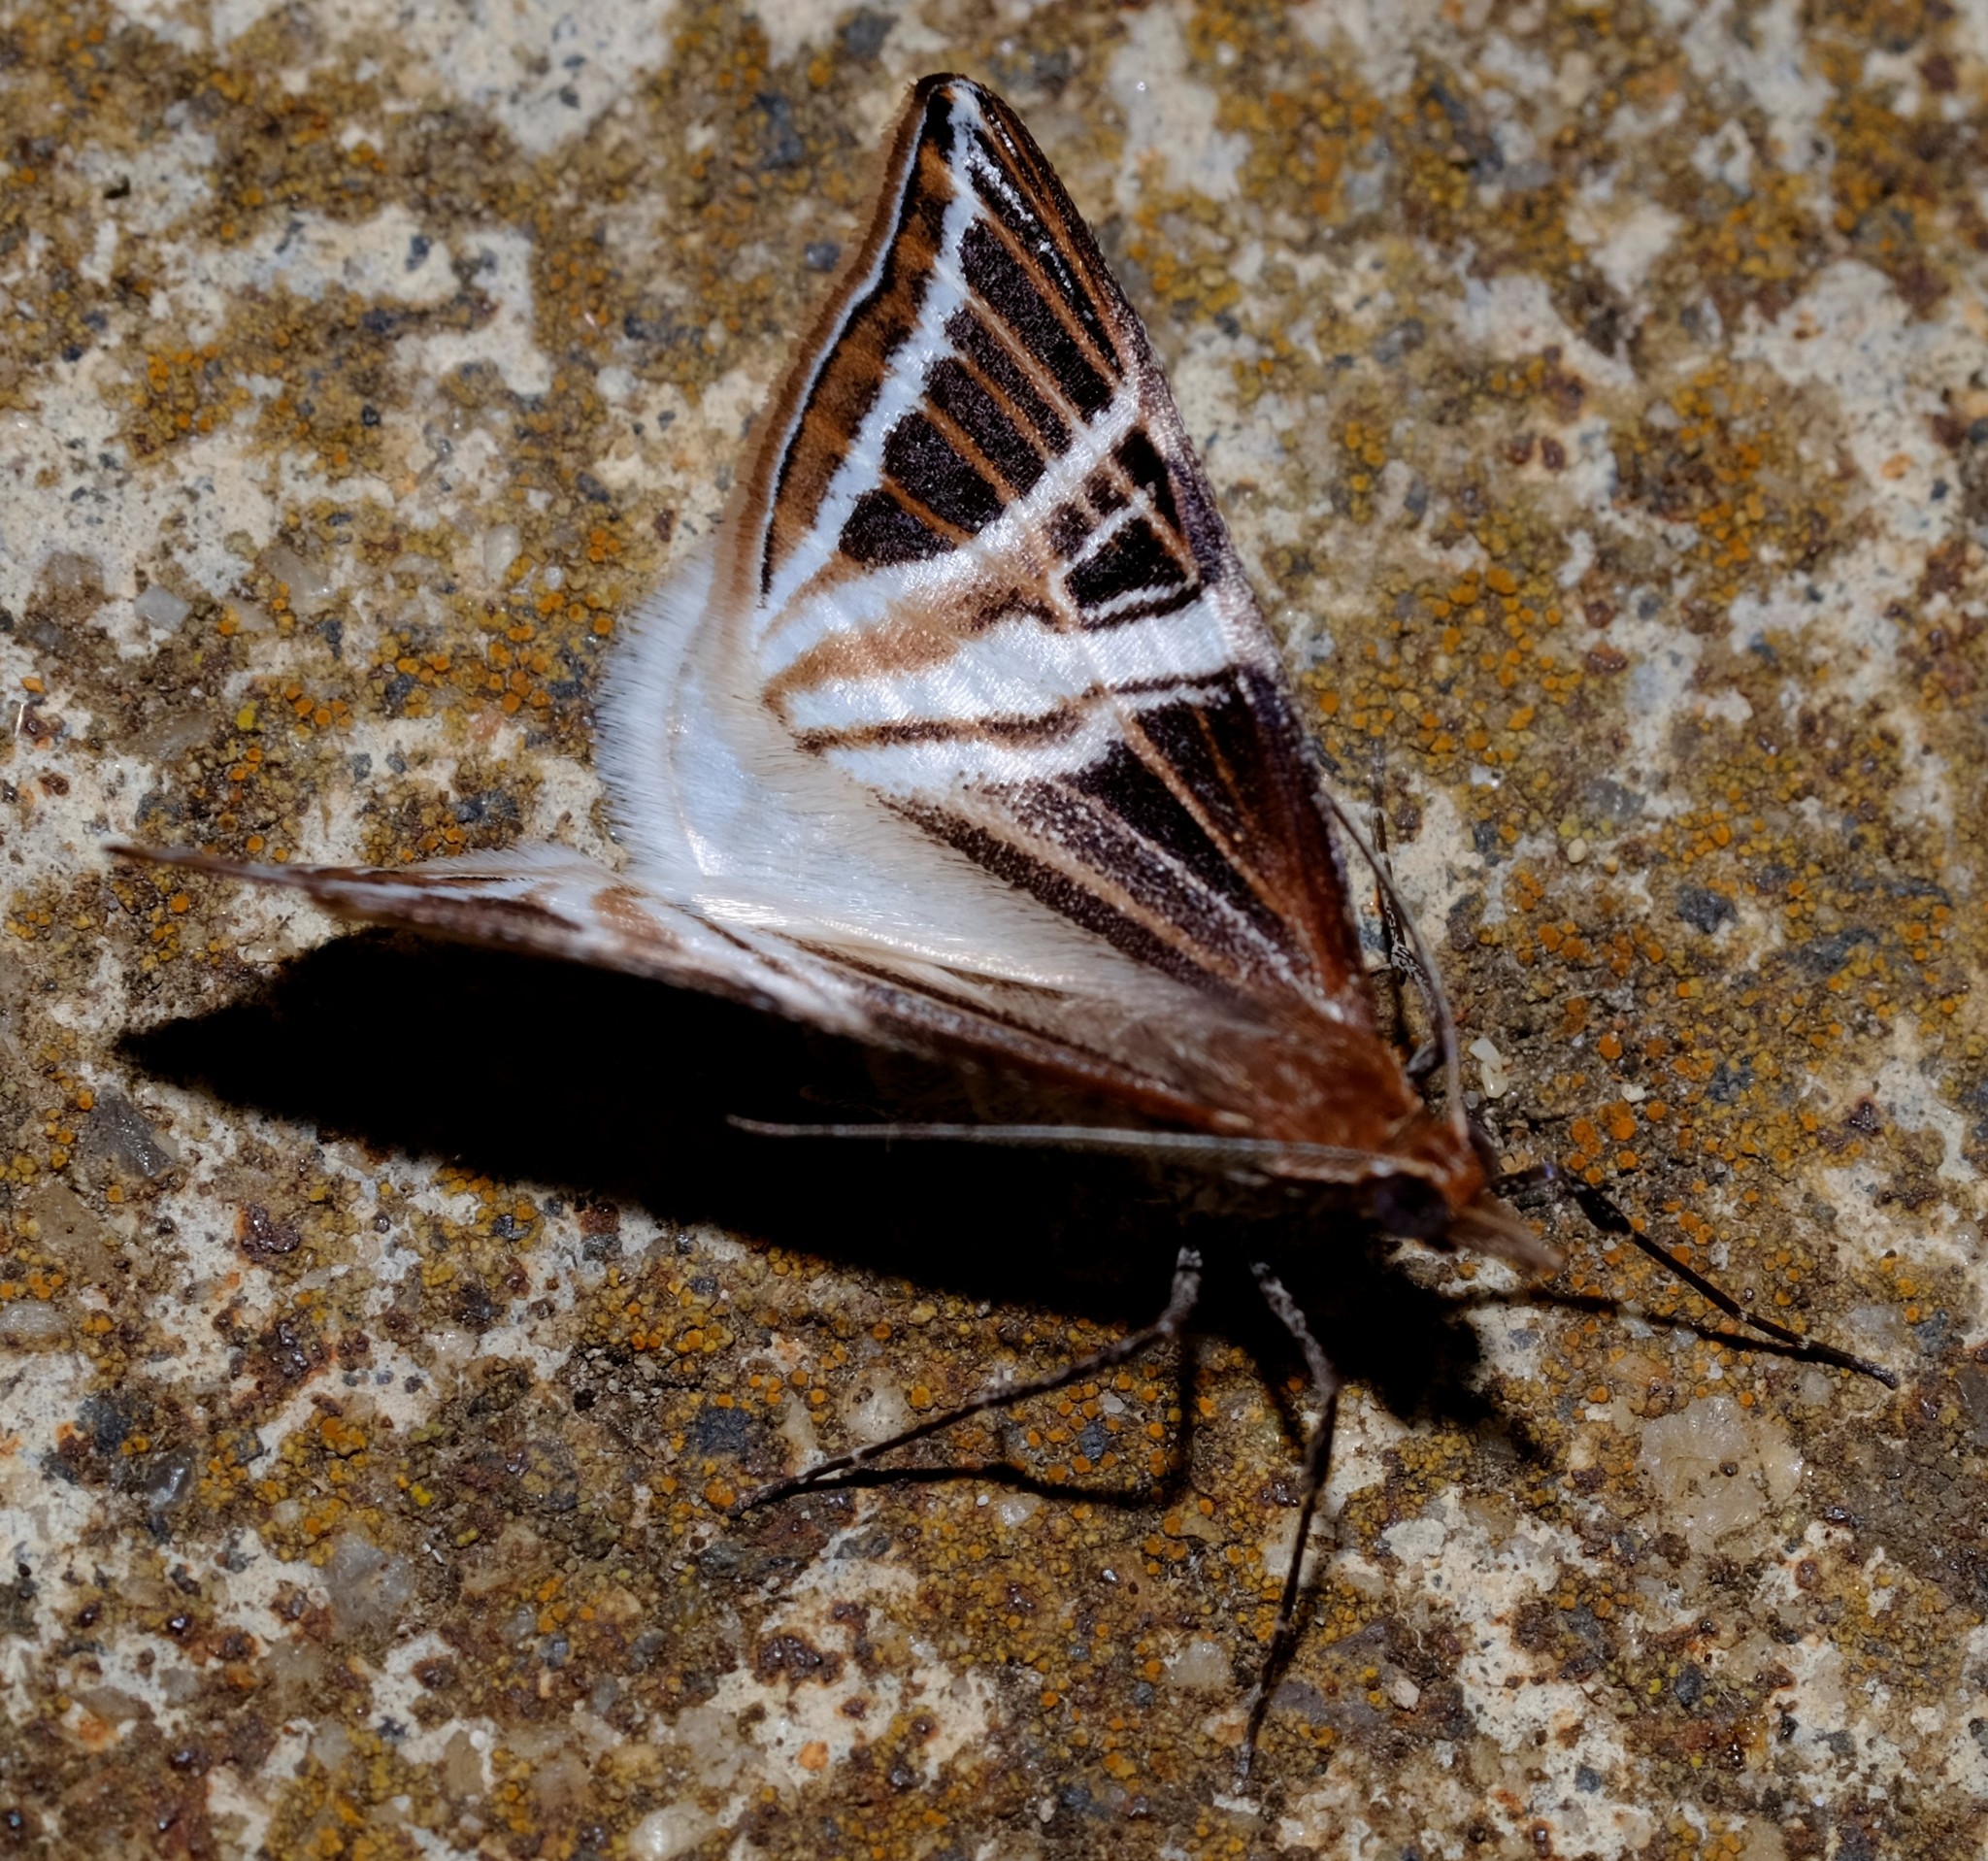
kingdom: Animalia
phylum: Arthropoda
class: Insecta
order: Lepidoptera
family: Geometridae
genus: Phrataria
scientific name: Phrataria transcissata
